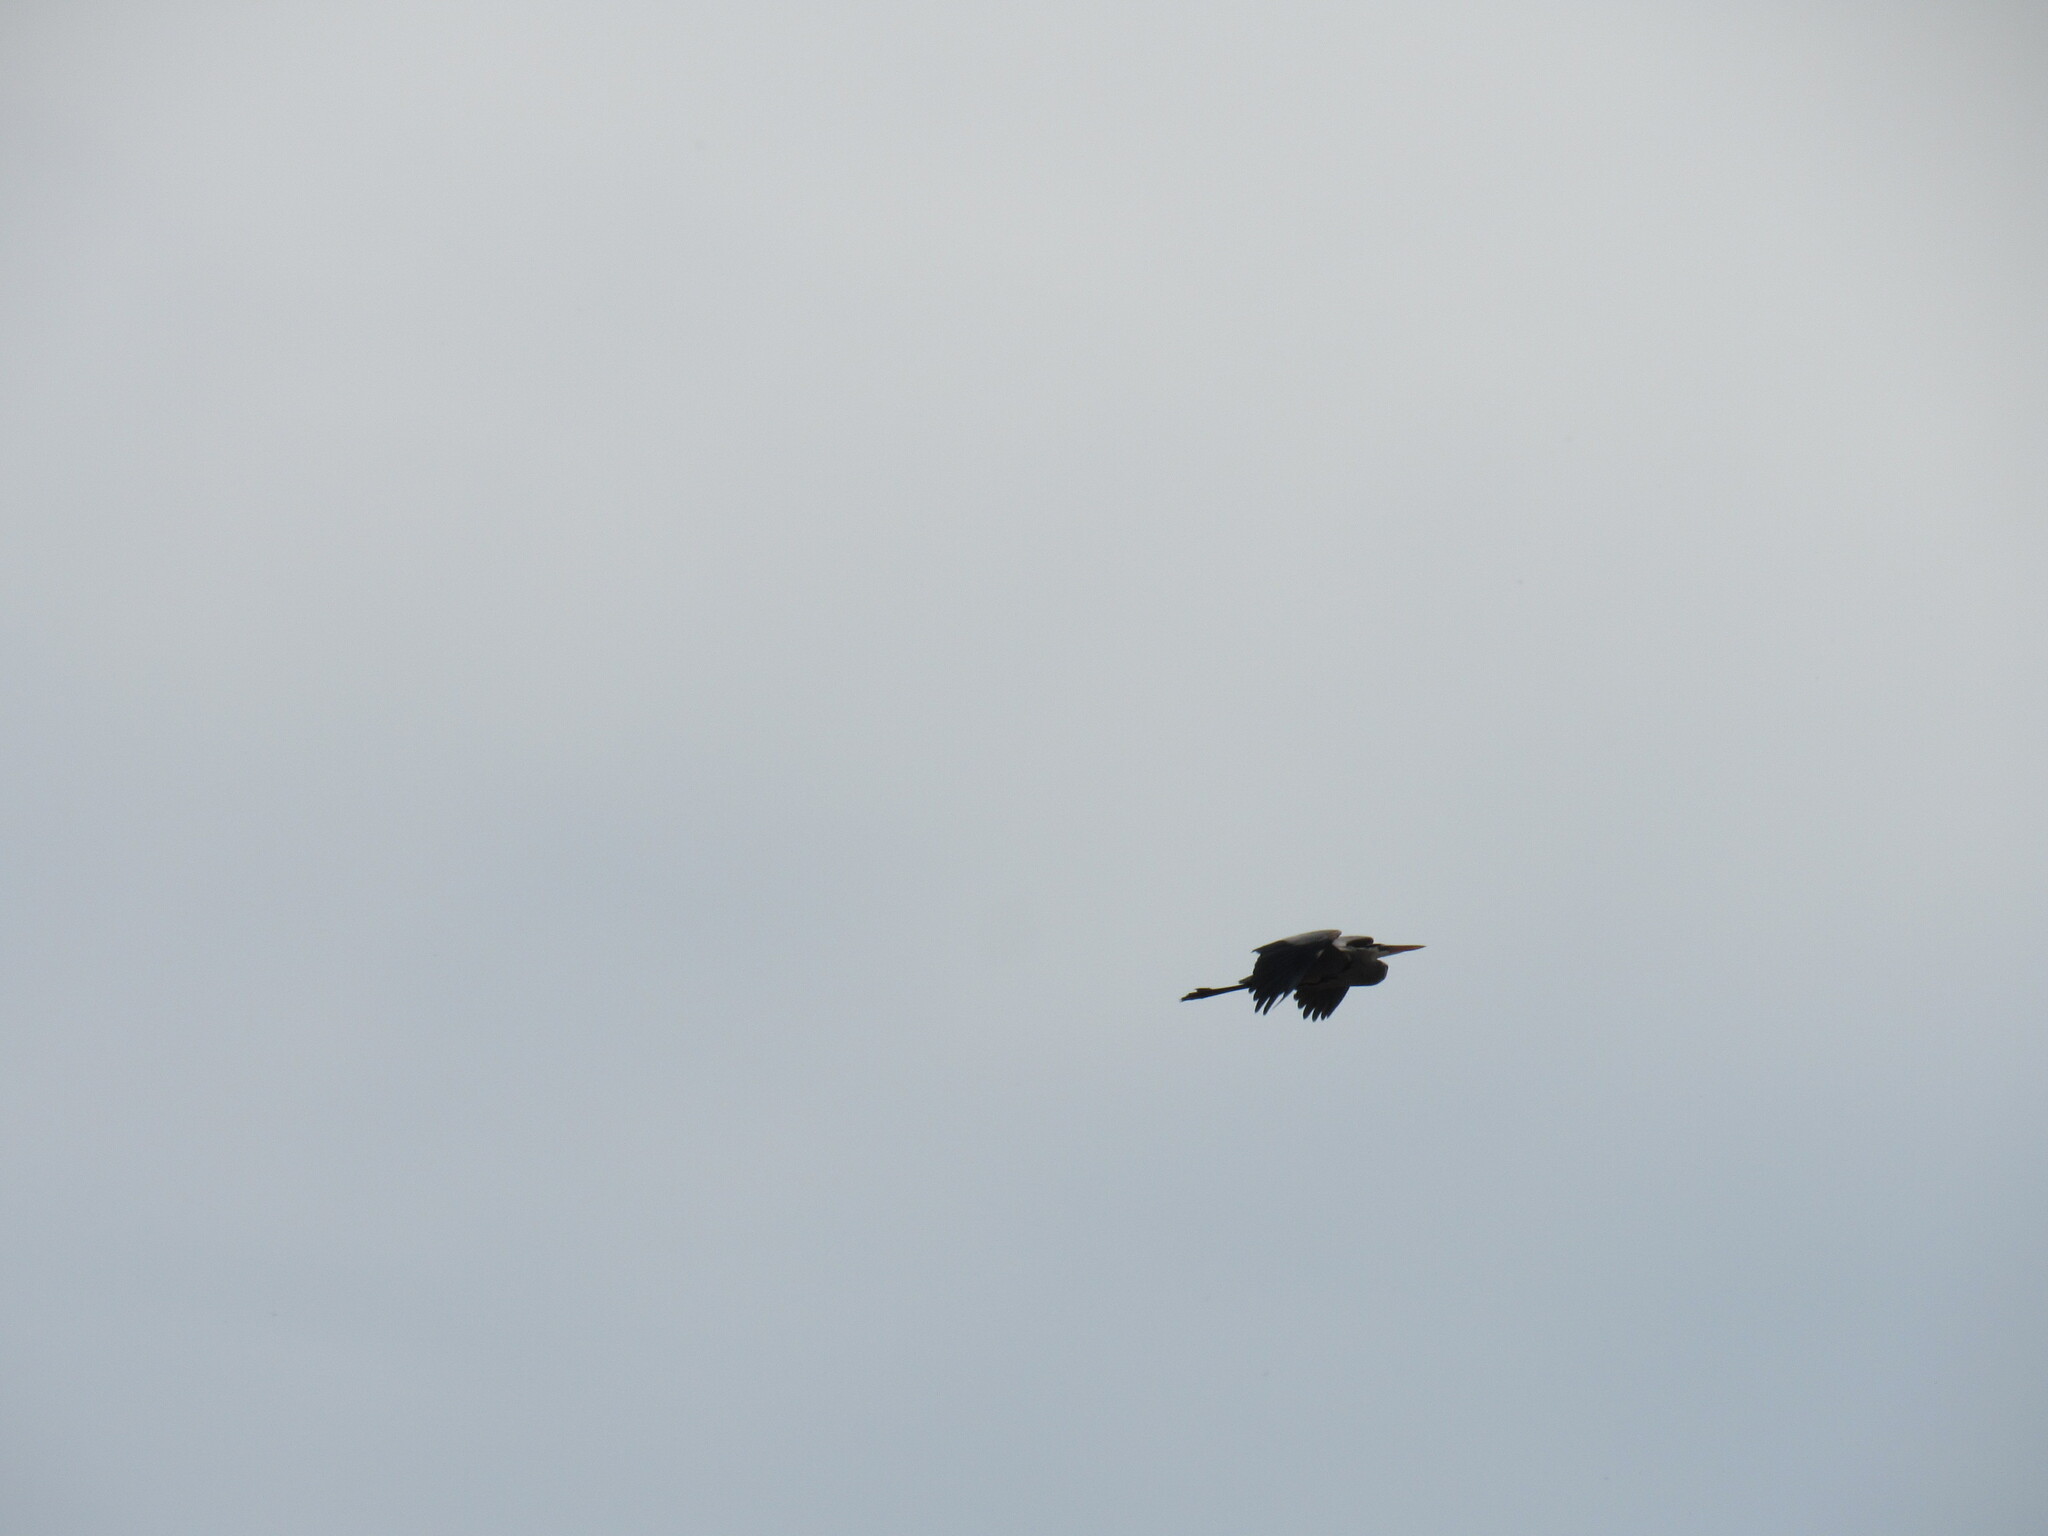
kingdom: Animalia
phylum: Chordata
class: Aves
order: Pelecaniformes
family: Ardeidae
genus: Ardea
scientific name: Ardea herodias
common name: Great blue heron
